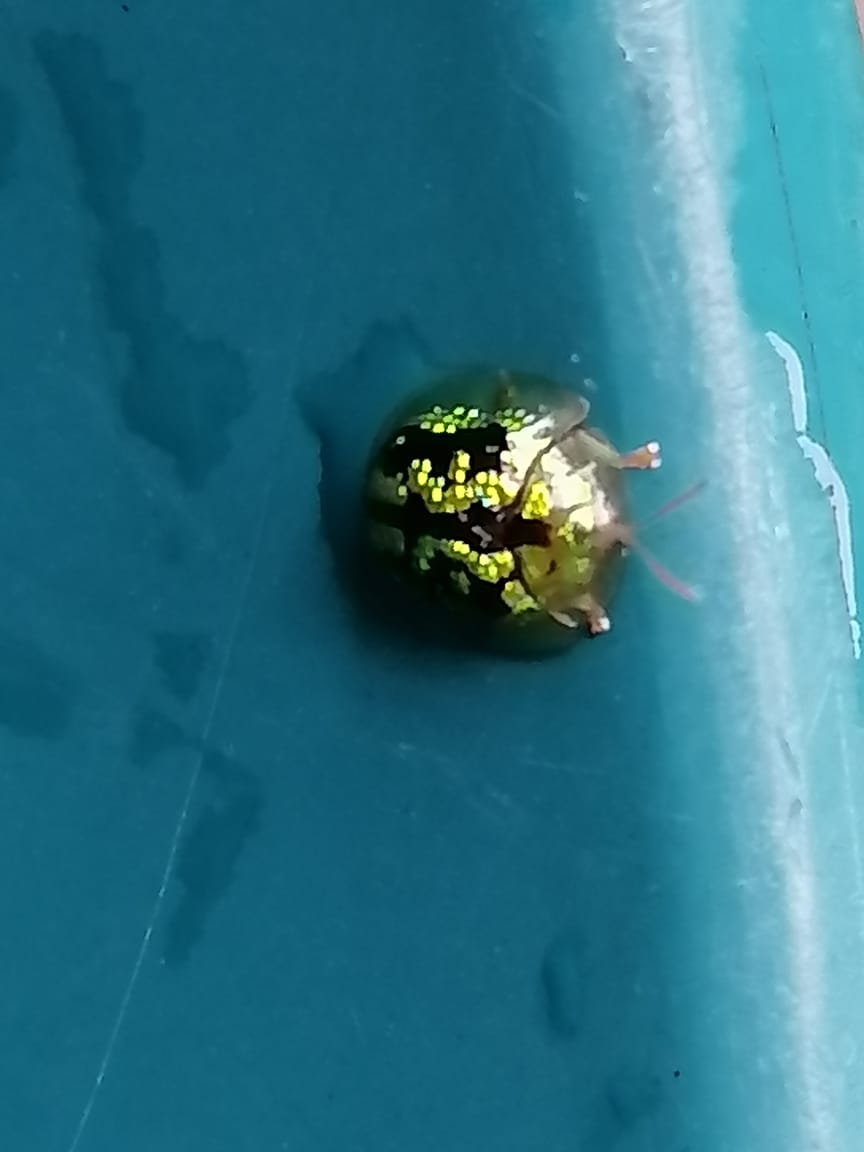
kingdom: Animalia
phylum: Arthropoda
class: Insecta
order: Coleoptera
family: Chrysomelidae
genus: Cassida
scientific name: Cassida circumdata
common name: Tortoise beetle
